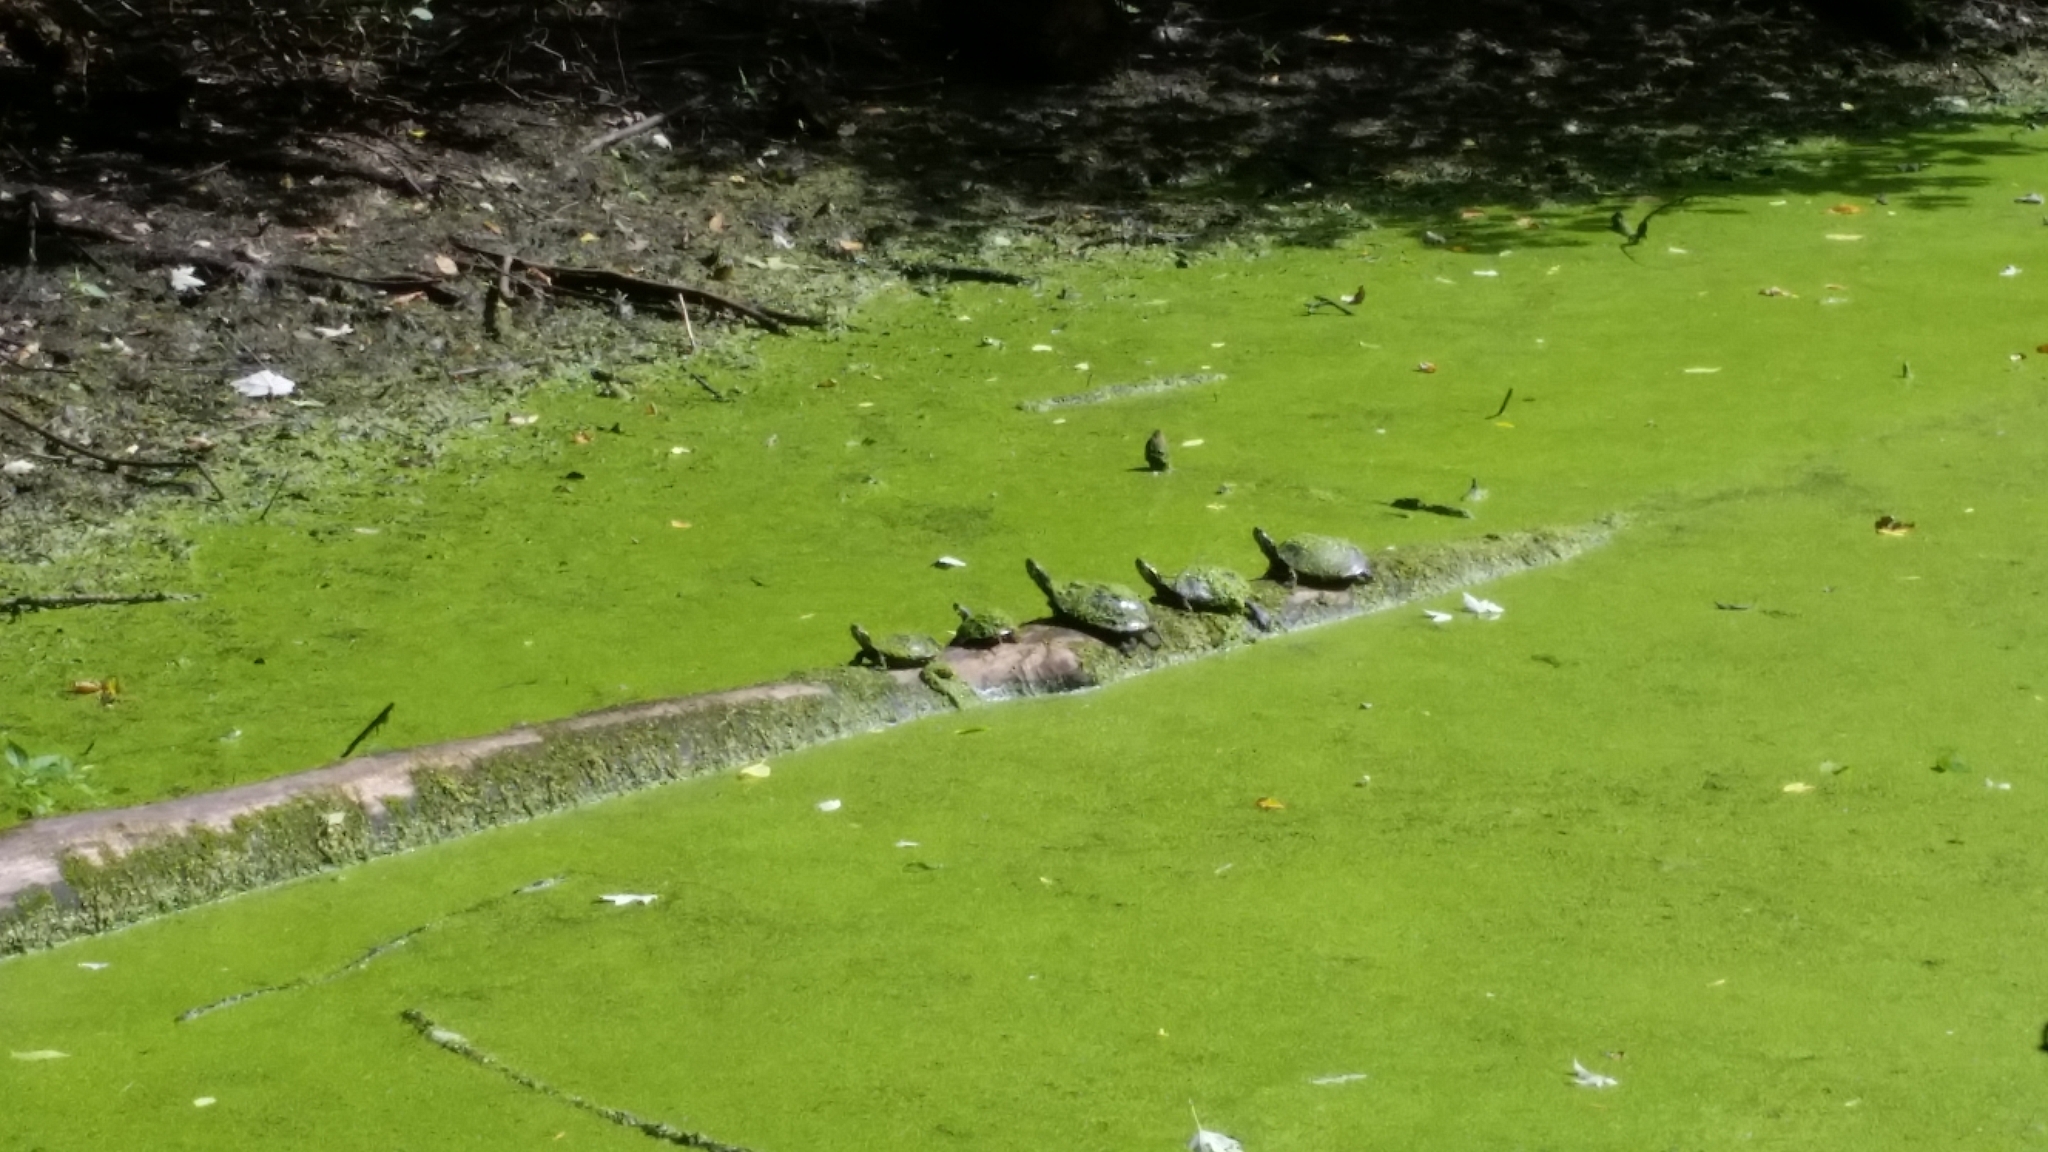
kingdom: Animalia
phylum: Chordata
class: Testudines
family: Emydidae
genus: Chrysemys
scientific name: Chrysemys picta
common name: Painted turtle
